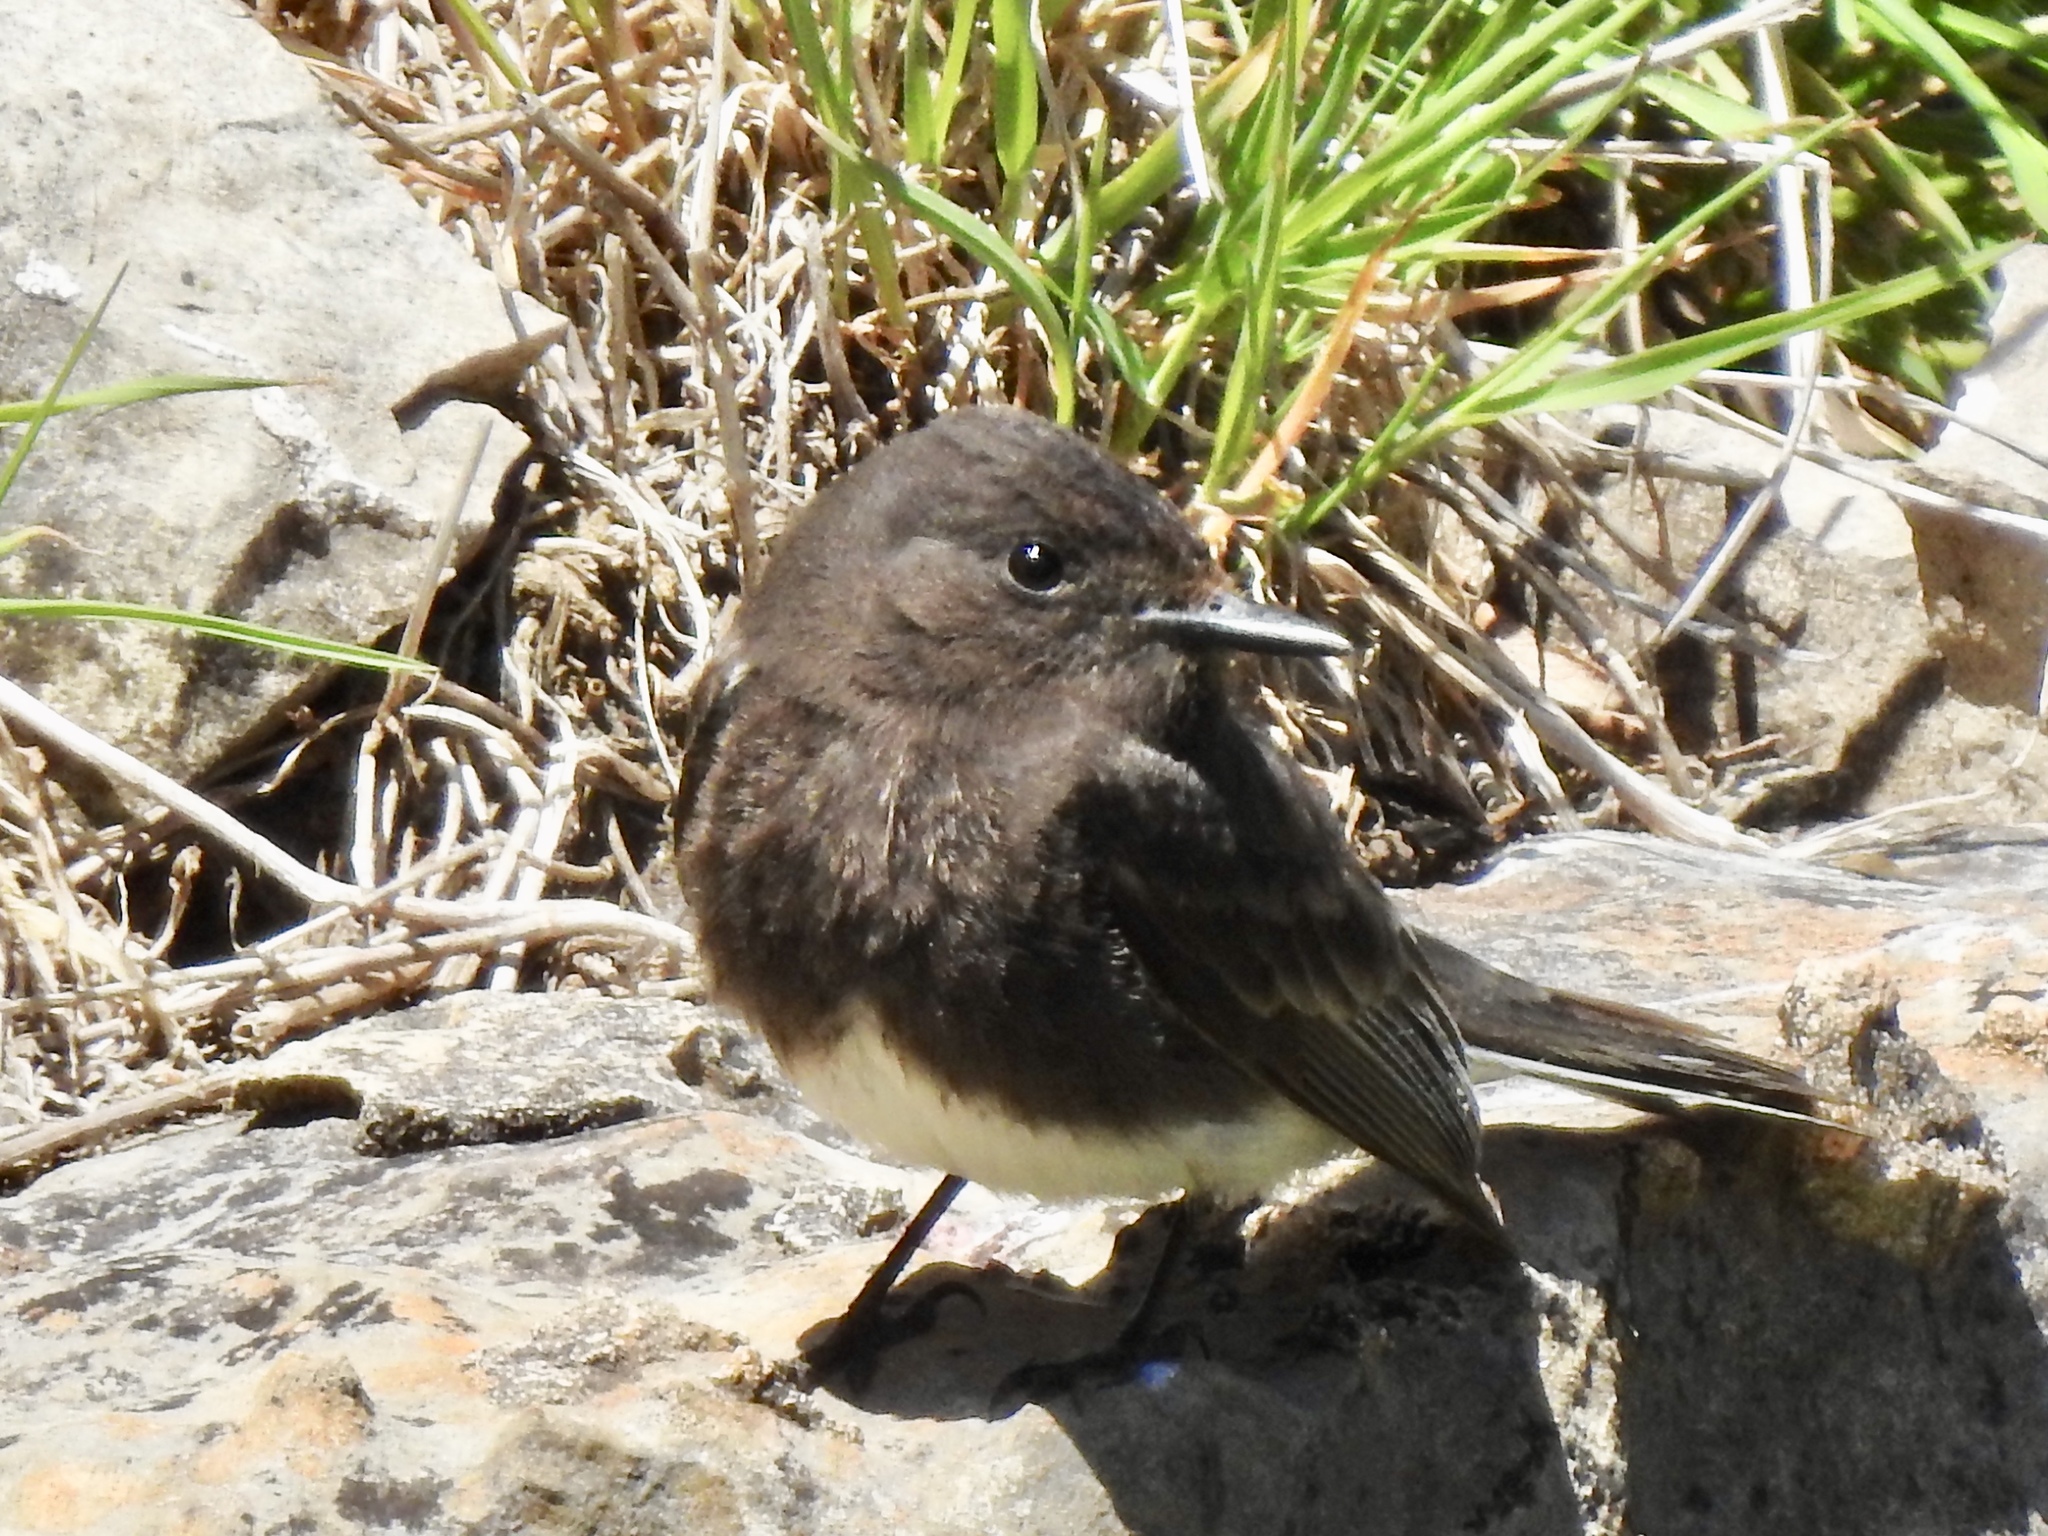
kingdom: Animalia
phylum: Chordata
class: Aves
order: Passeriformes
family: Tyrannidae
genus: Sayornis
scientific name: Sayornis nigricans
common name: Black phoebe
